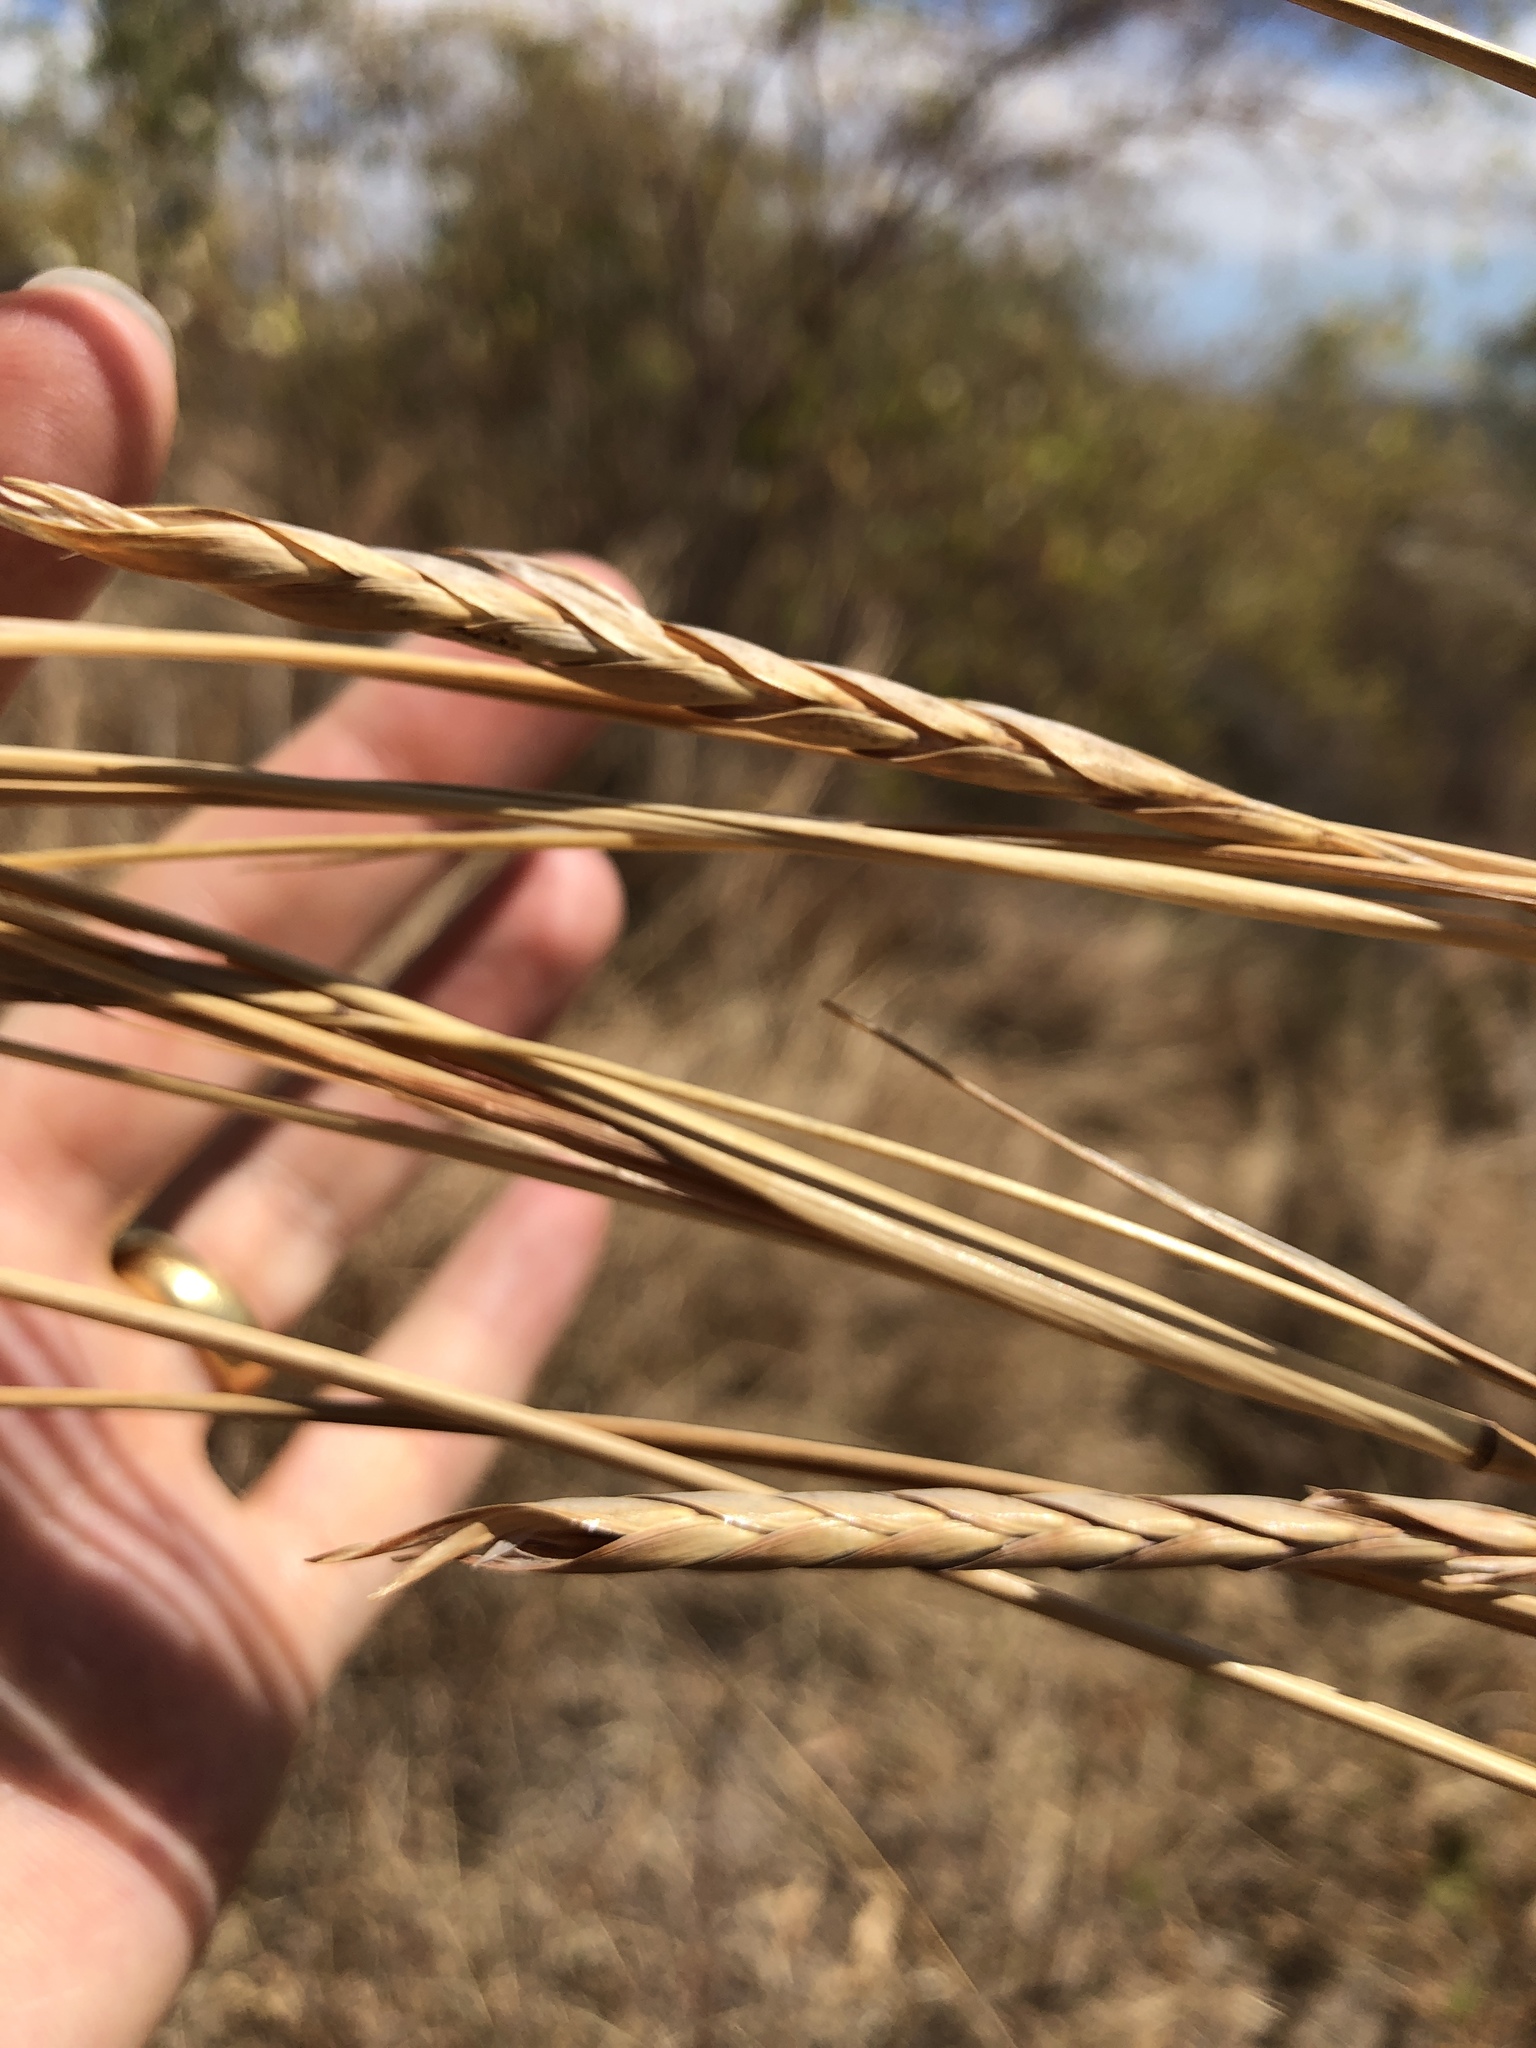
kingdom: Plantae
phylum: Tracheophyta
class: Liliopsida
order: Poales
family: Poaceae
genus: Heteropogon
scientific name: Heteropogon triticeus
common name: Sugar grass
